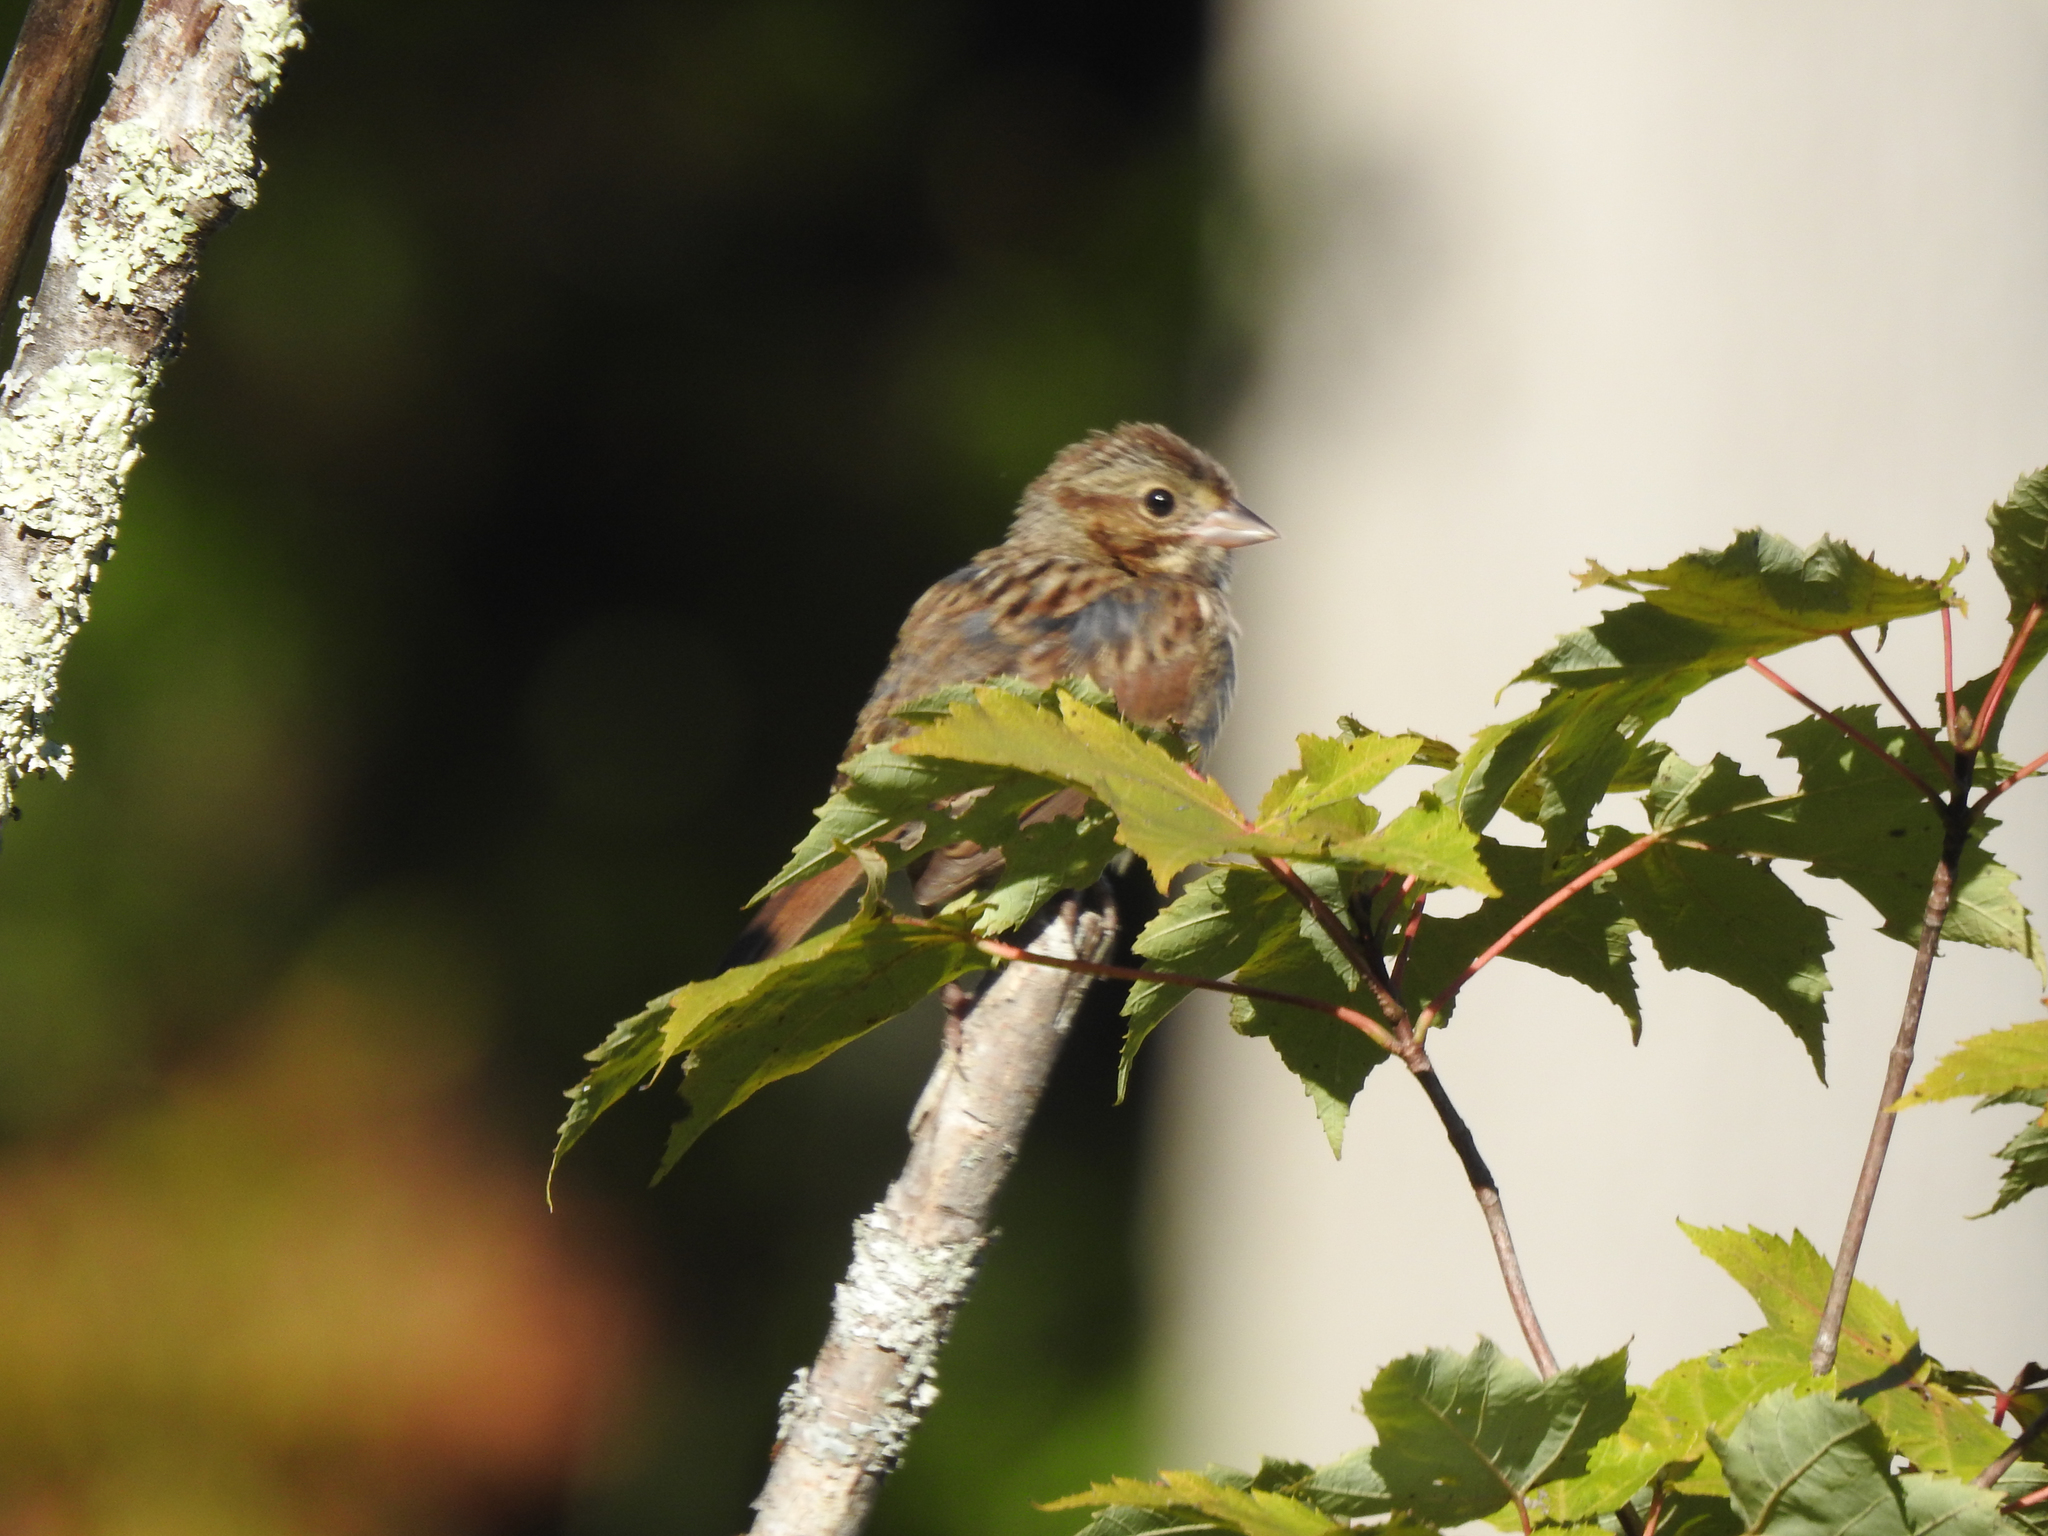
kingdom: Animalia
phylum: Chordata
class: Aves
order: Passeriformes
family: Passerellidae
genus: Melospiza
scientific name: Melospiza lincolnii
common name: Lincoln's sparrow
